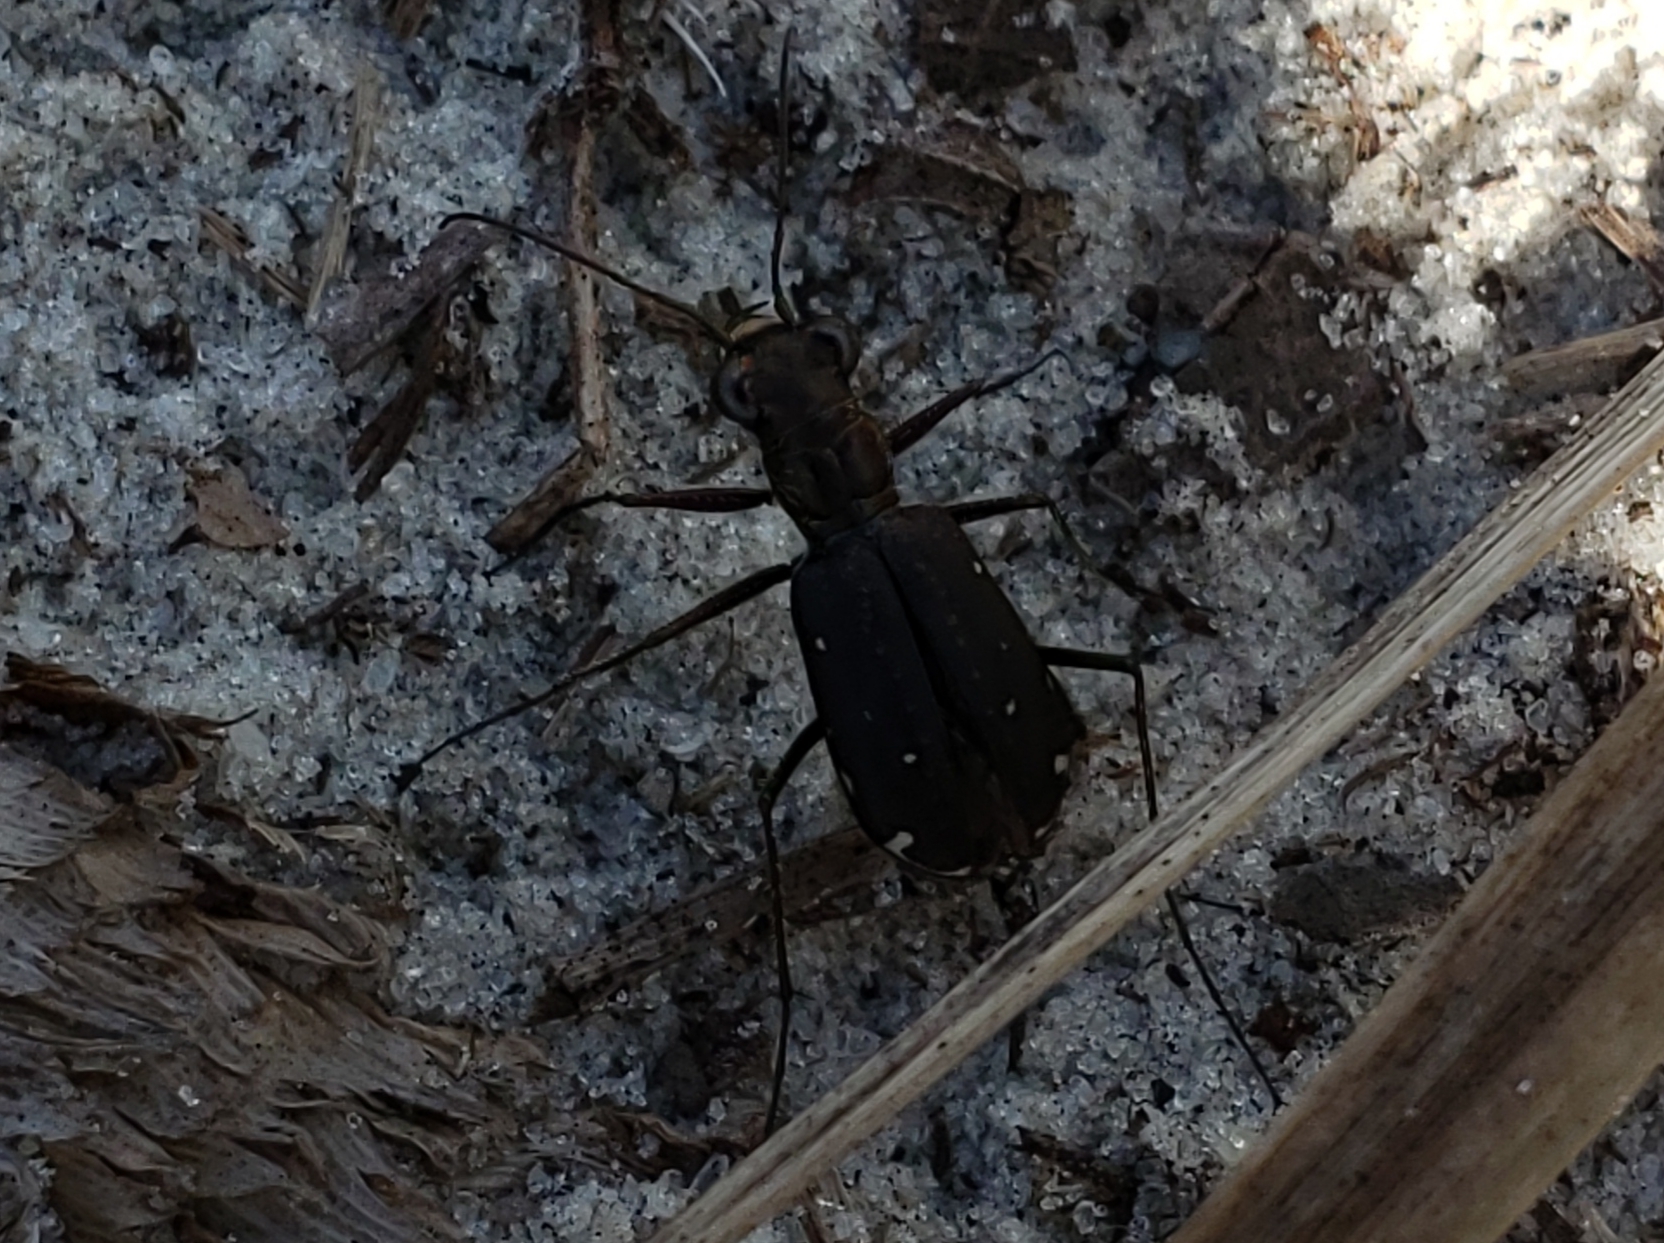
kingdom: Animalia
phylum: Arthropoda
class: Insecta
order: Coleoptera
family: Carabidae
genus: Cicindela
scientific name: Cicindela punctulata
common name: Punctured tiger beetle
